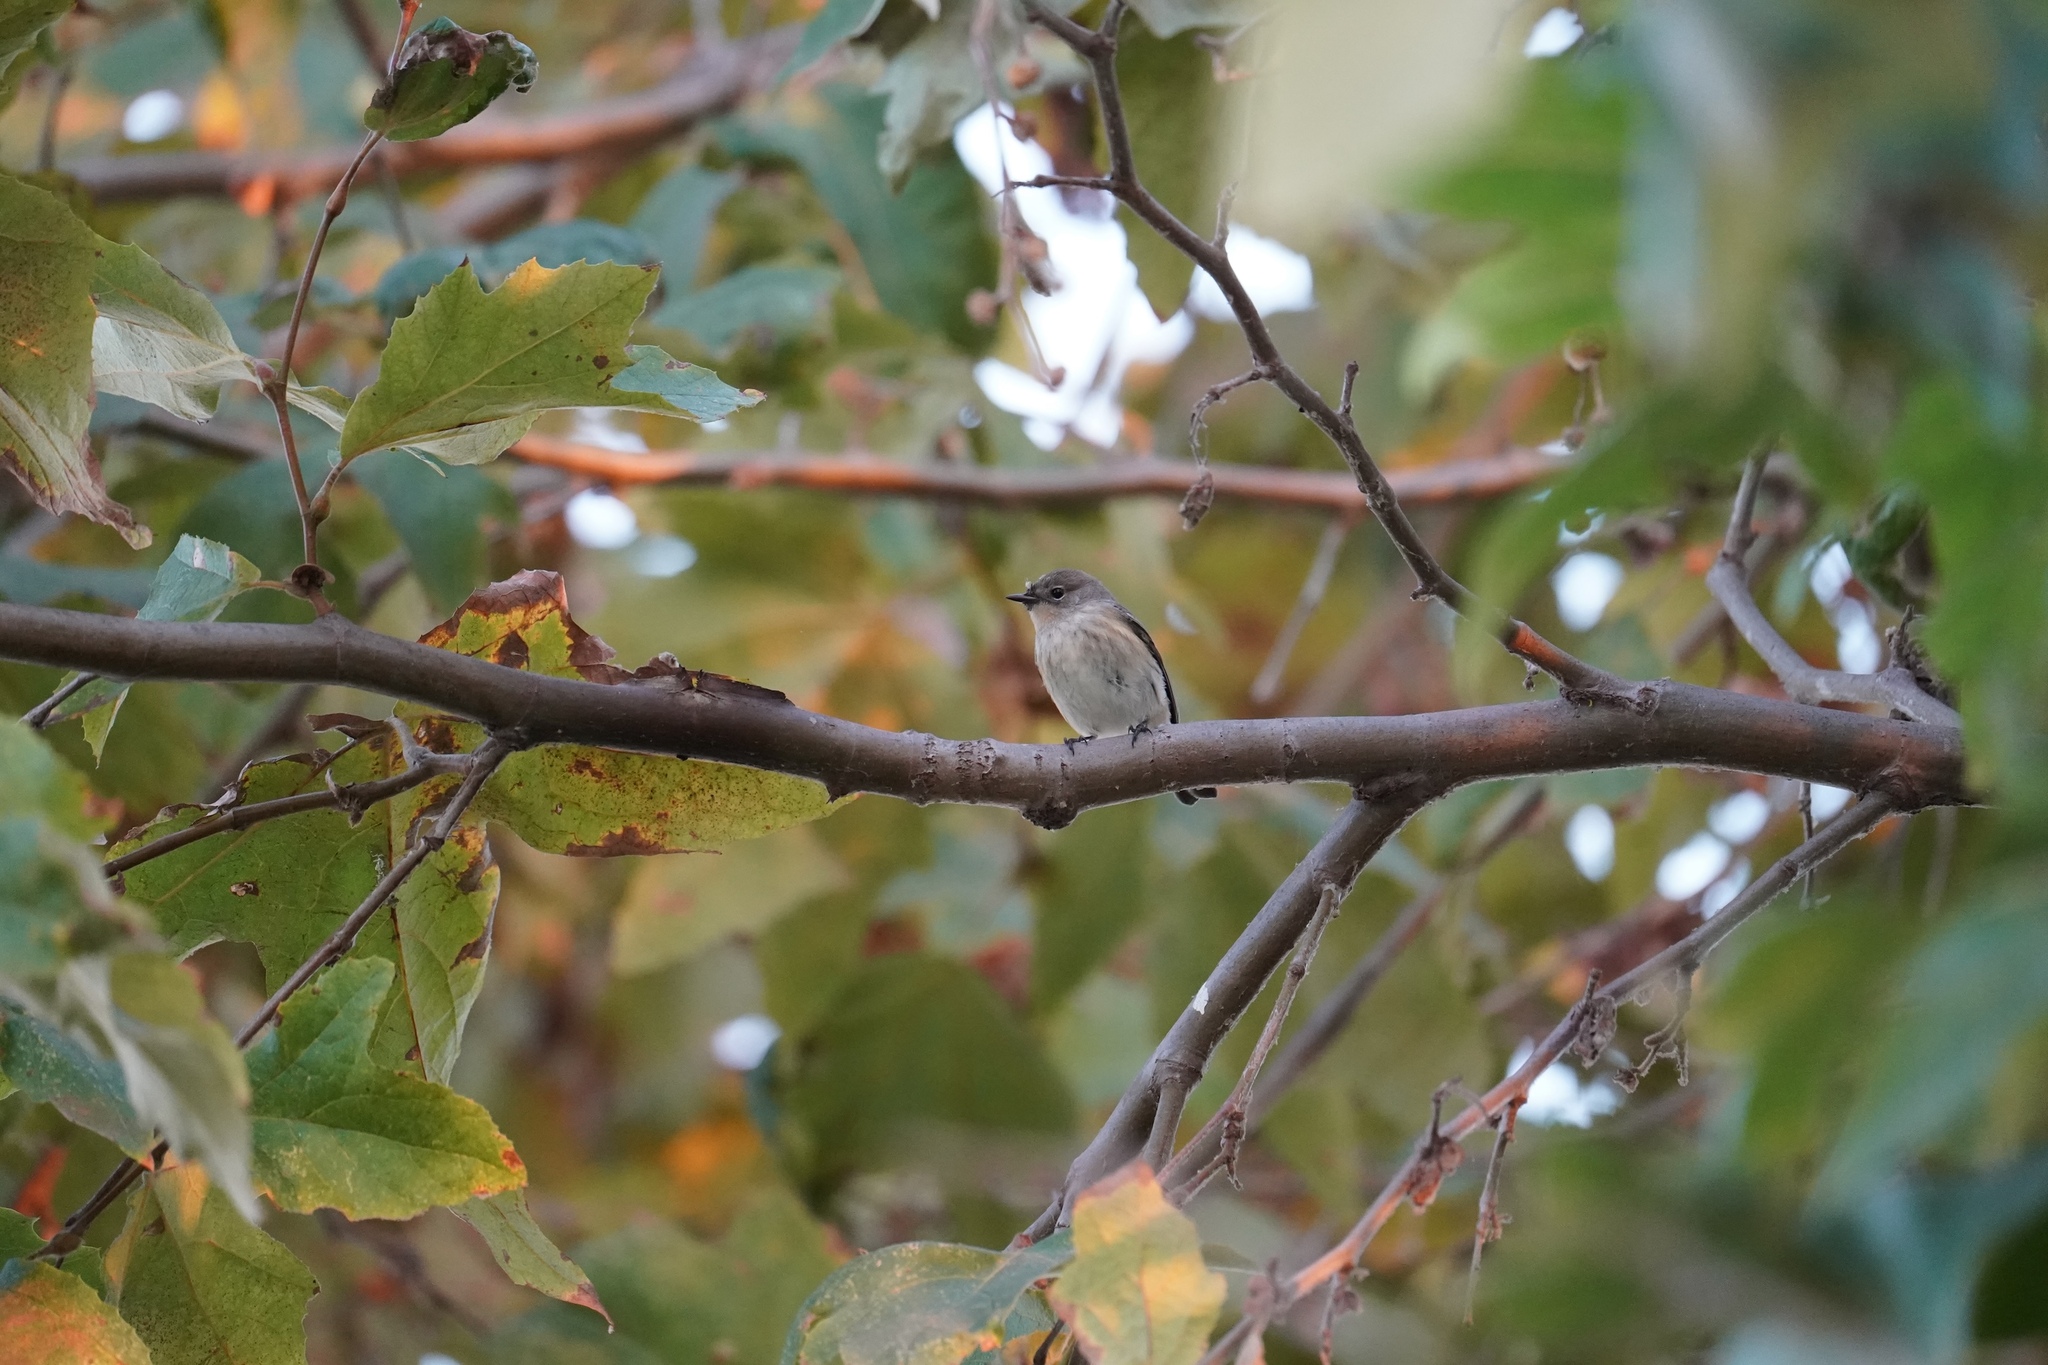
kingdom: Animalia
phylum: Chordata
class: Aves
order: Passeriformes
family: Parulidae
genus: Setophaga
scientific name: Setophaga coronata
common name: Myrtle warbler
